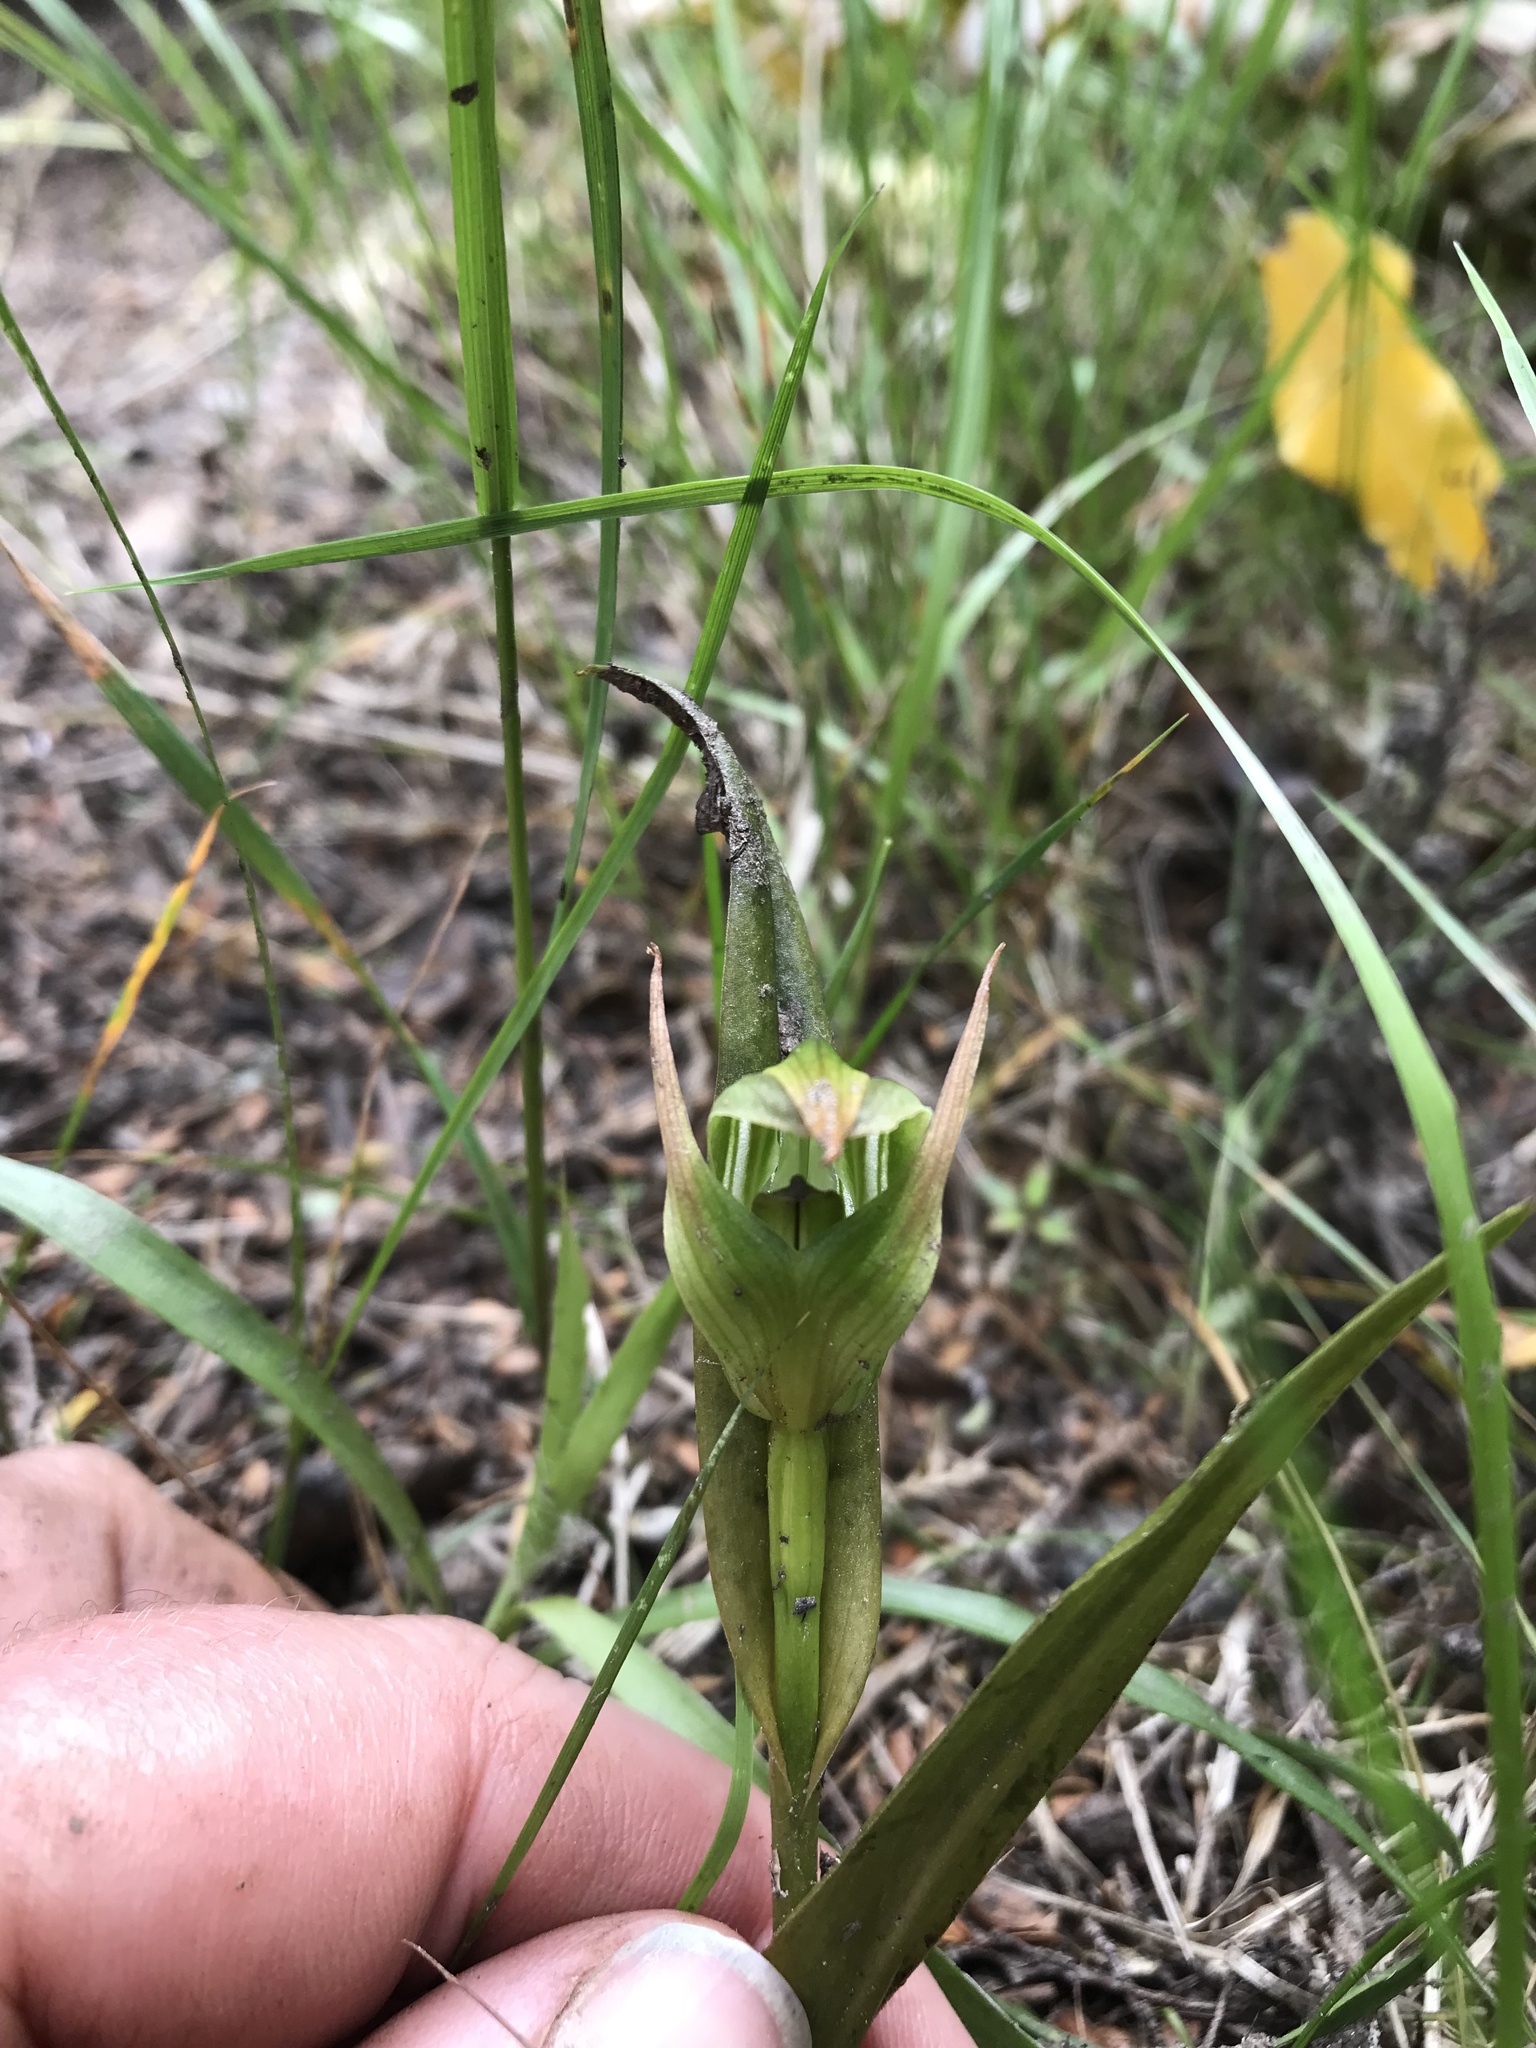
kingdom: Plantae
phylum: Tracheophyta
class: Liliopsida
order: Asparagales
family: Orchidaceae
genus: Pterostylis
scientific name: Pterostylis montana
